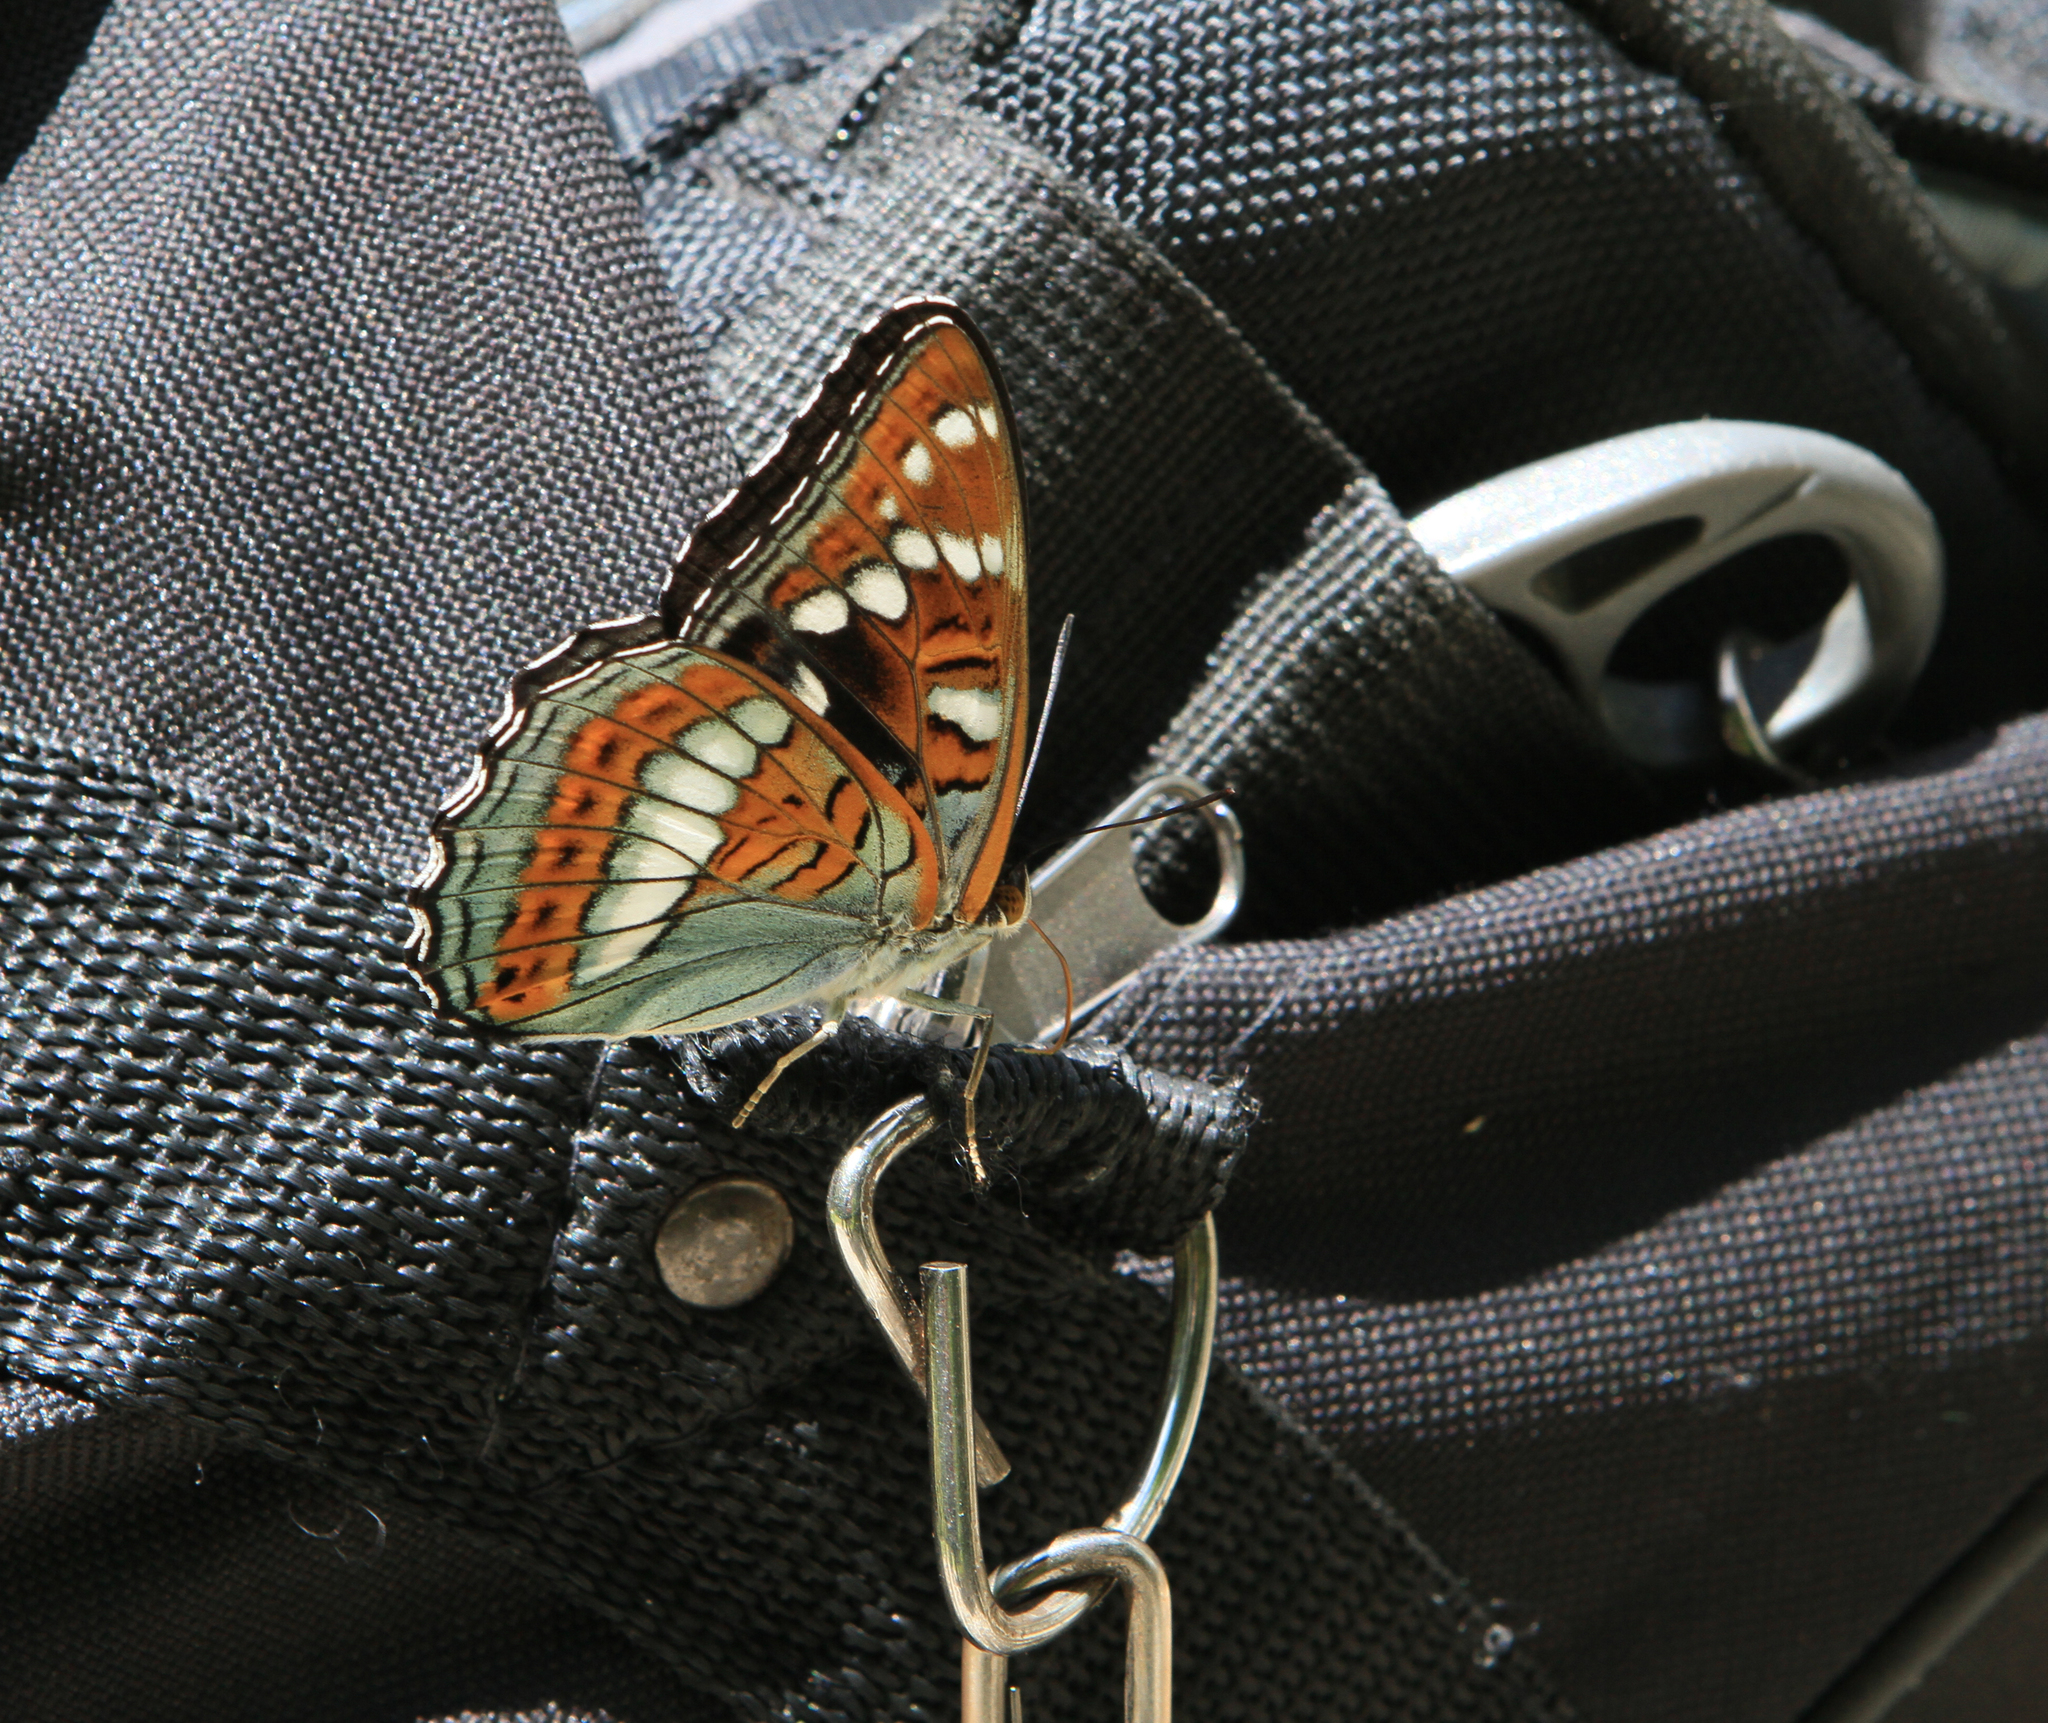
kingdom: Animalia
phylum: Arthropoda
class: Insecta
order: Lepidoptera
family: Nymphalidae
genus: Limenitis
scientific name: Limenitis populi
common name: Poplar admiral
